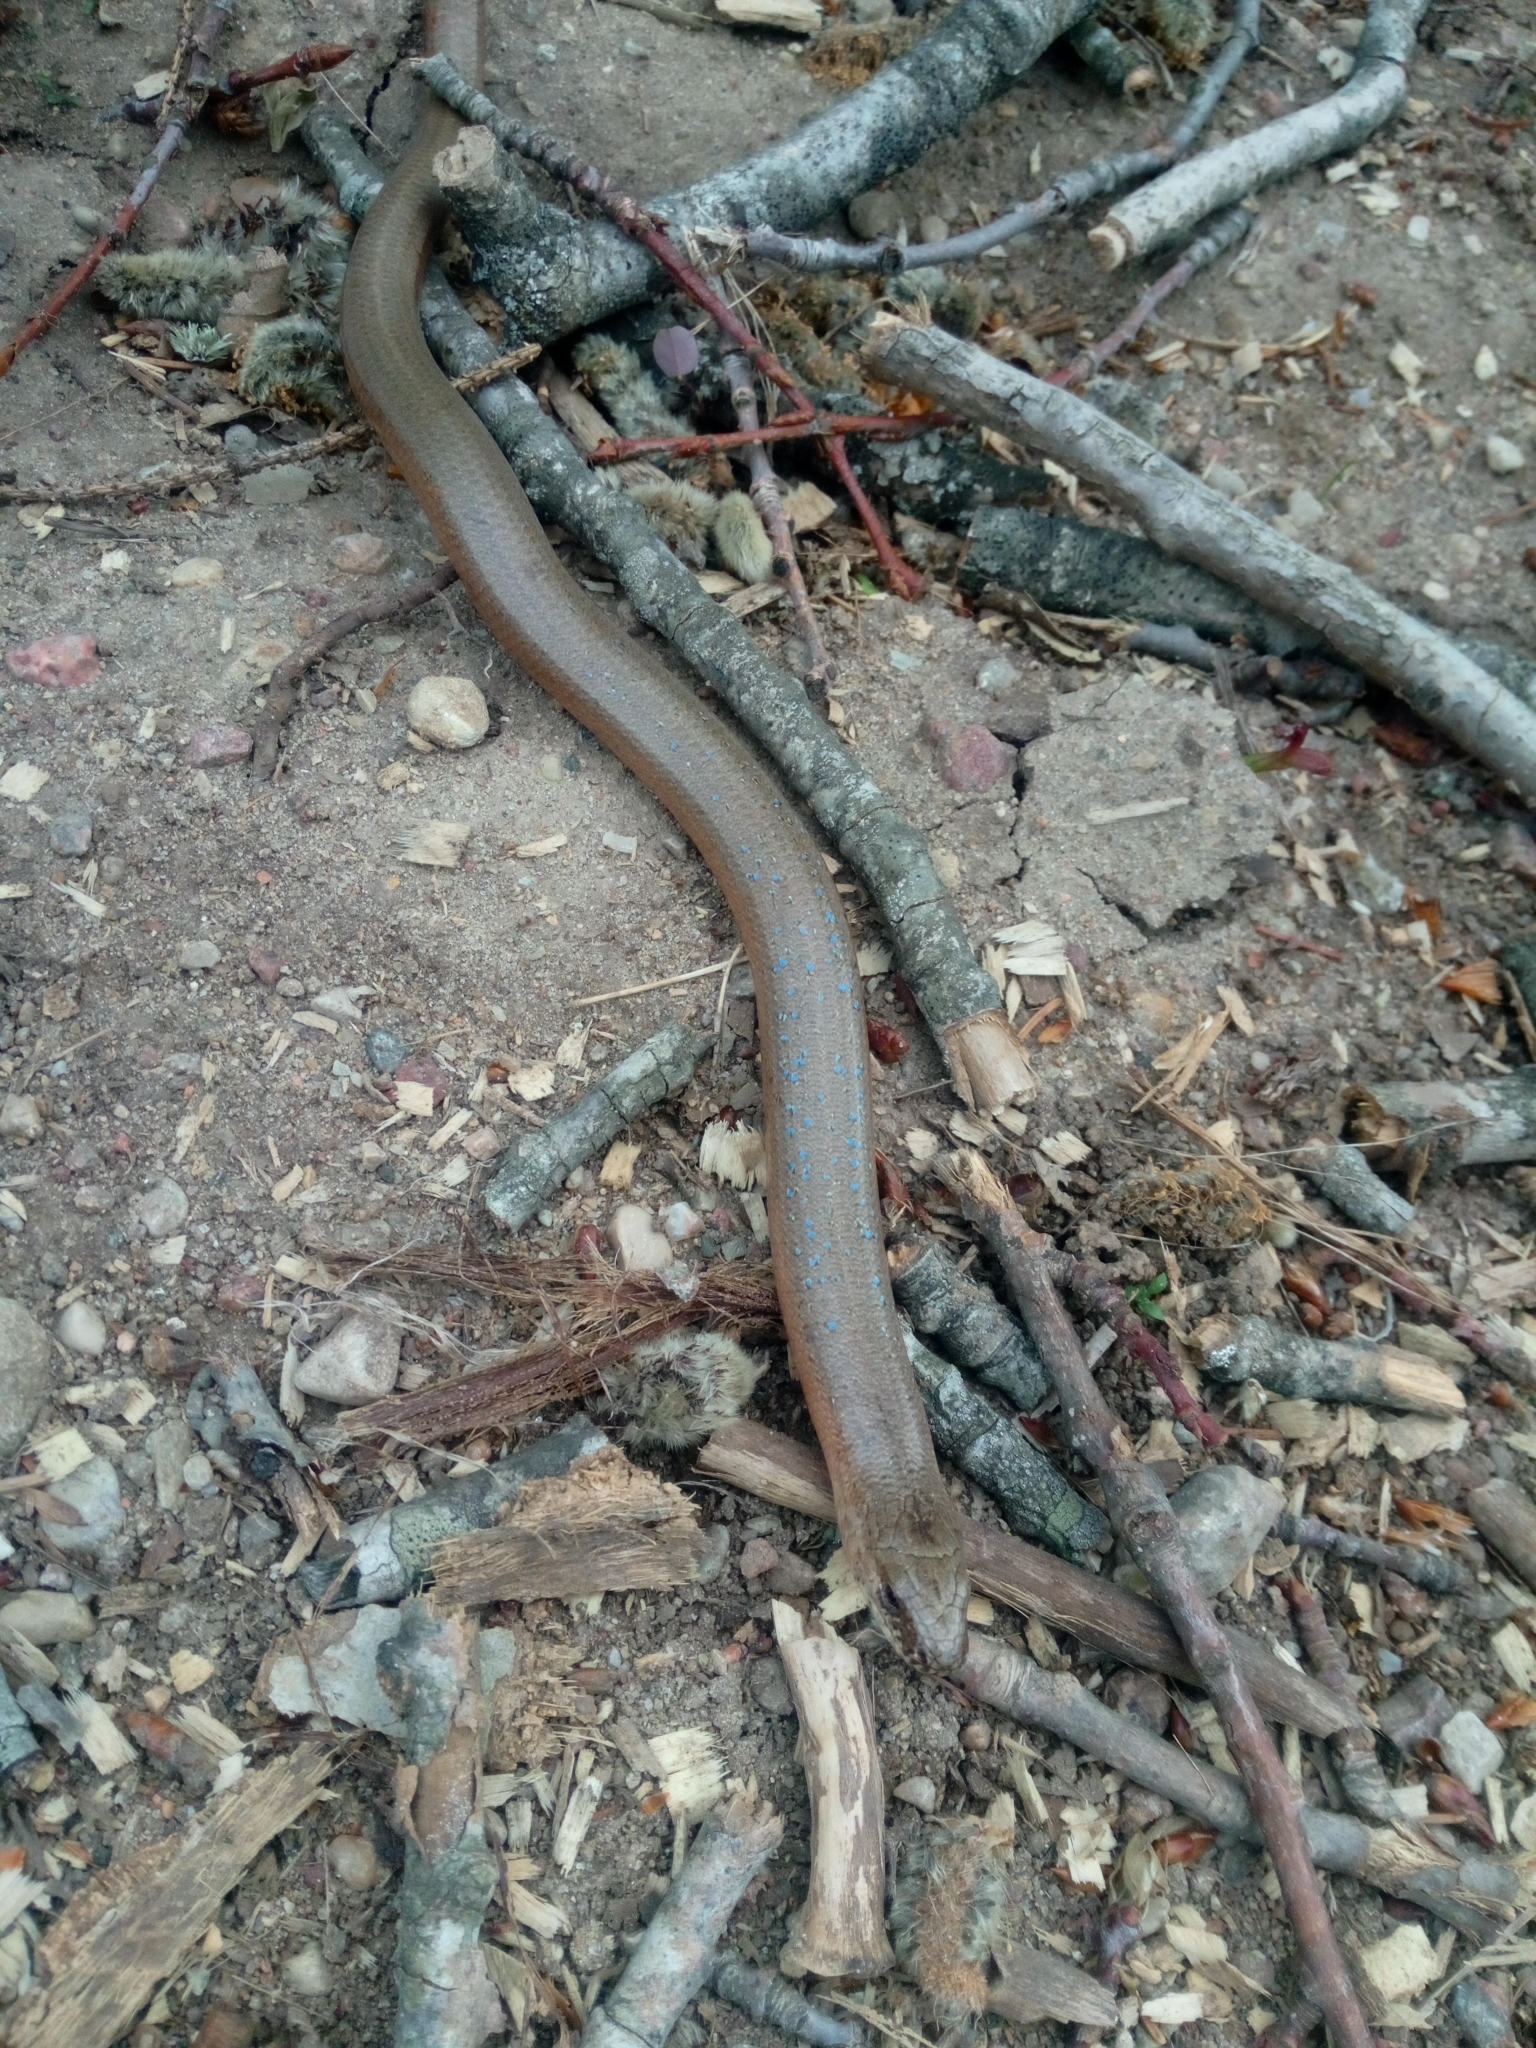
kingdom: Animalia
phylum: Chordata
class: Squamata
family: Anguidae
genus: Anguis
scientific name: Anguis fragilis
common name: Slow worm
